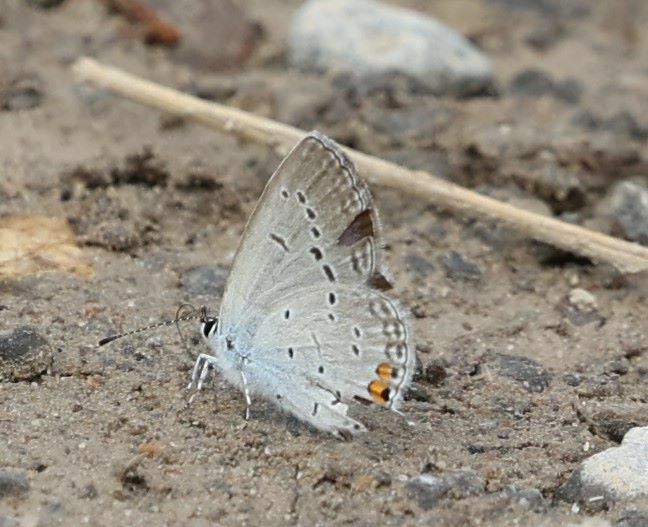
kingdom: Animalia
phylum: Arthropoda
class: Insecta
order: Lepidoptera
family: Lycaenidae
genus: Elkalyce
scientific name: Elkalyce comyntas
